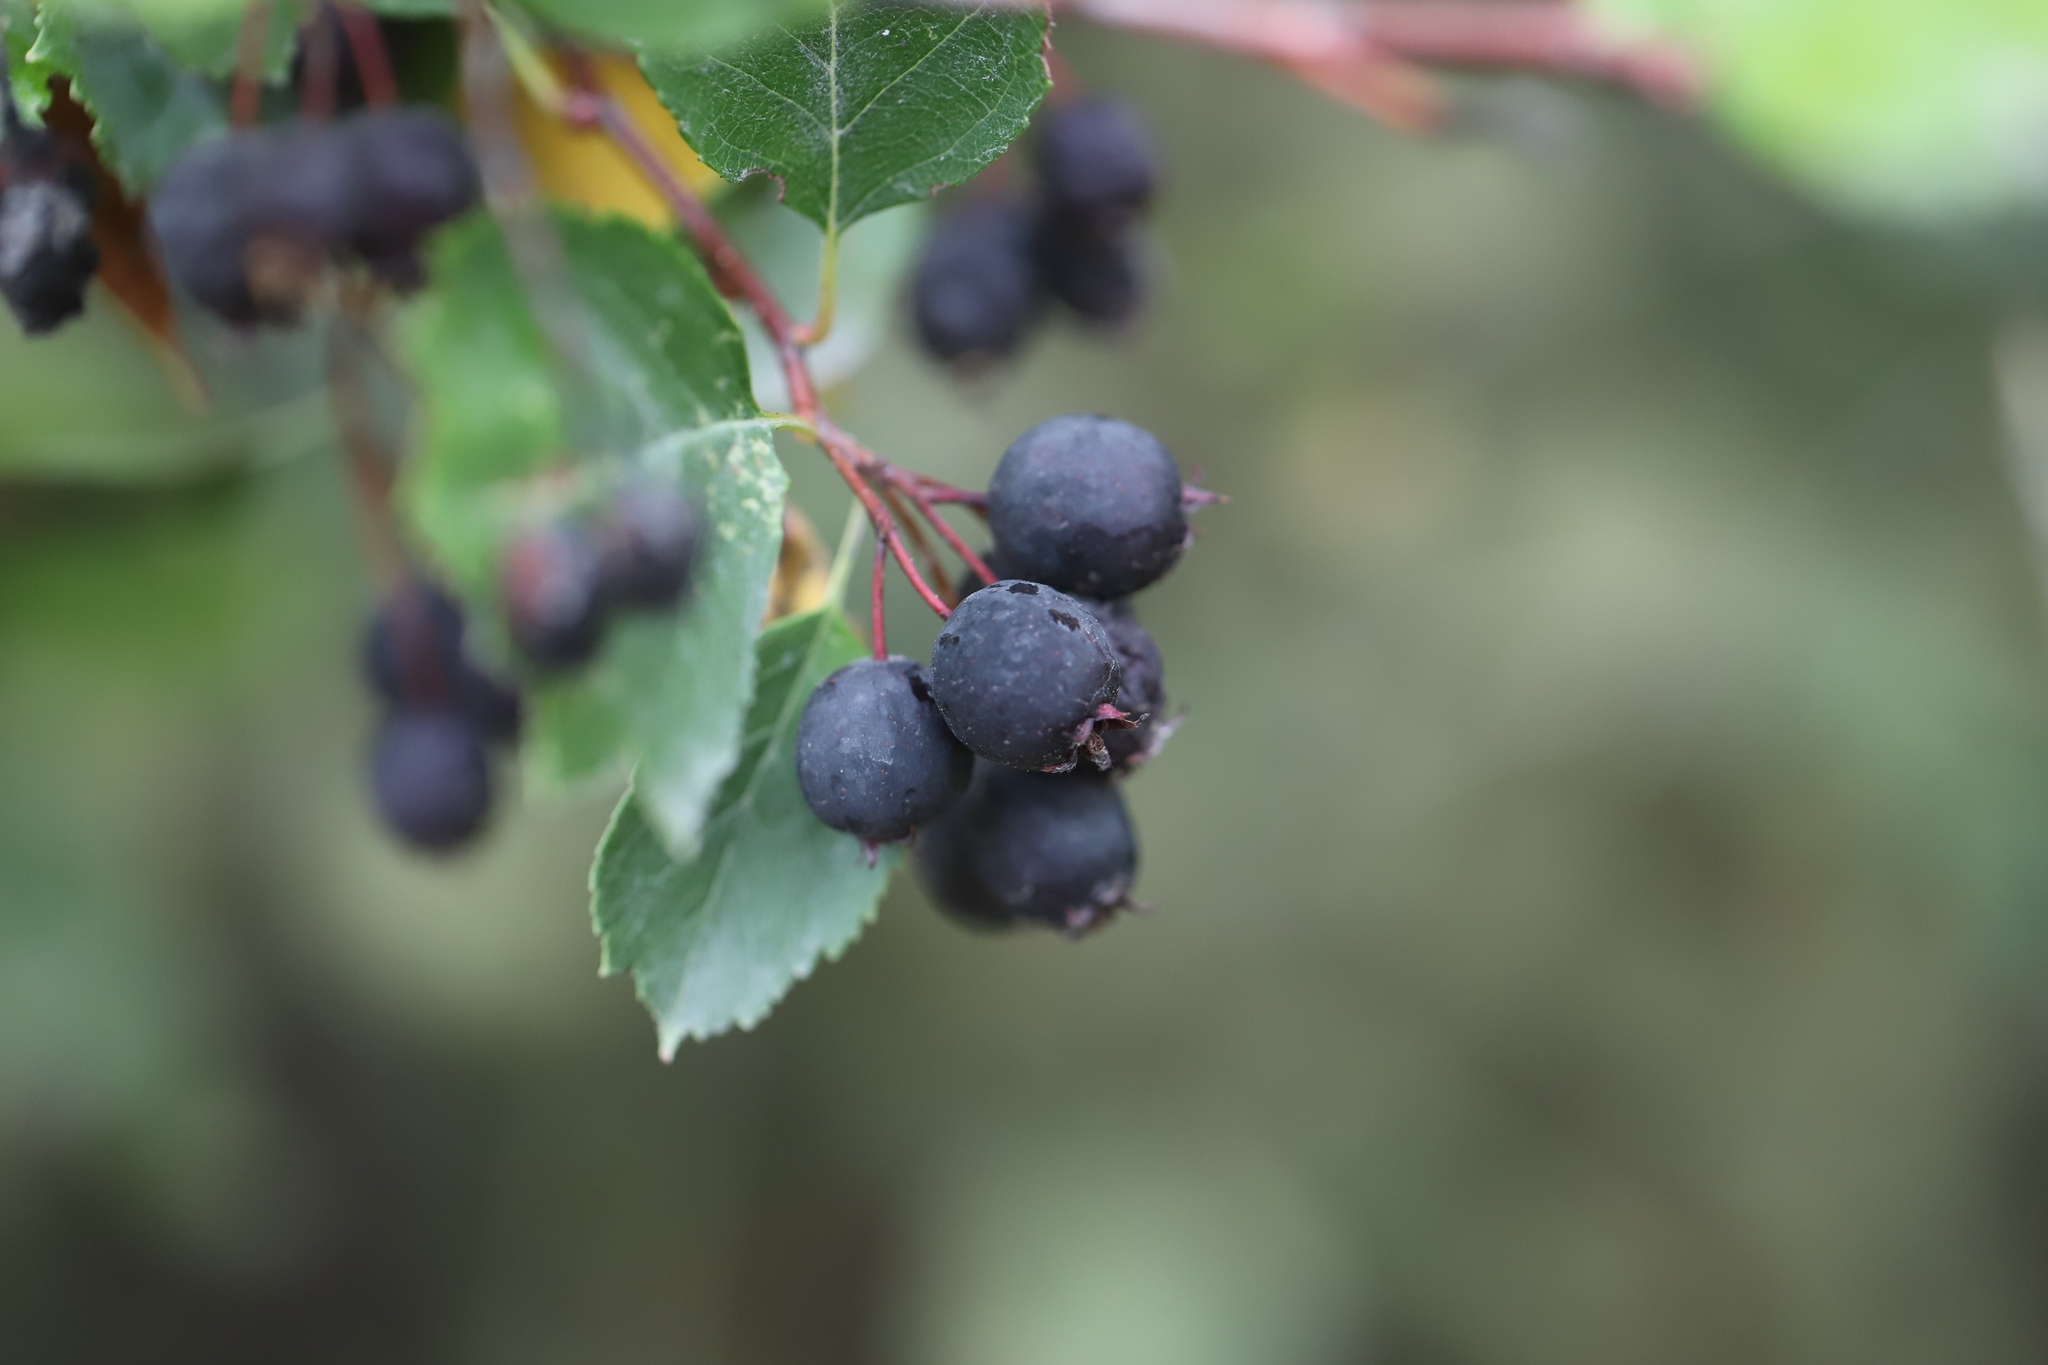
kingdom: Plantae
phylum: Tracheophyta
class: Magnoliopsida
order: Rosales
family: Rosaceae
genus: Crataegus
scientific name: Crataegus douglasii
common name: Black hawthorn
